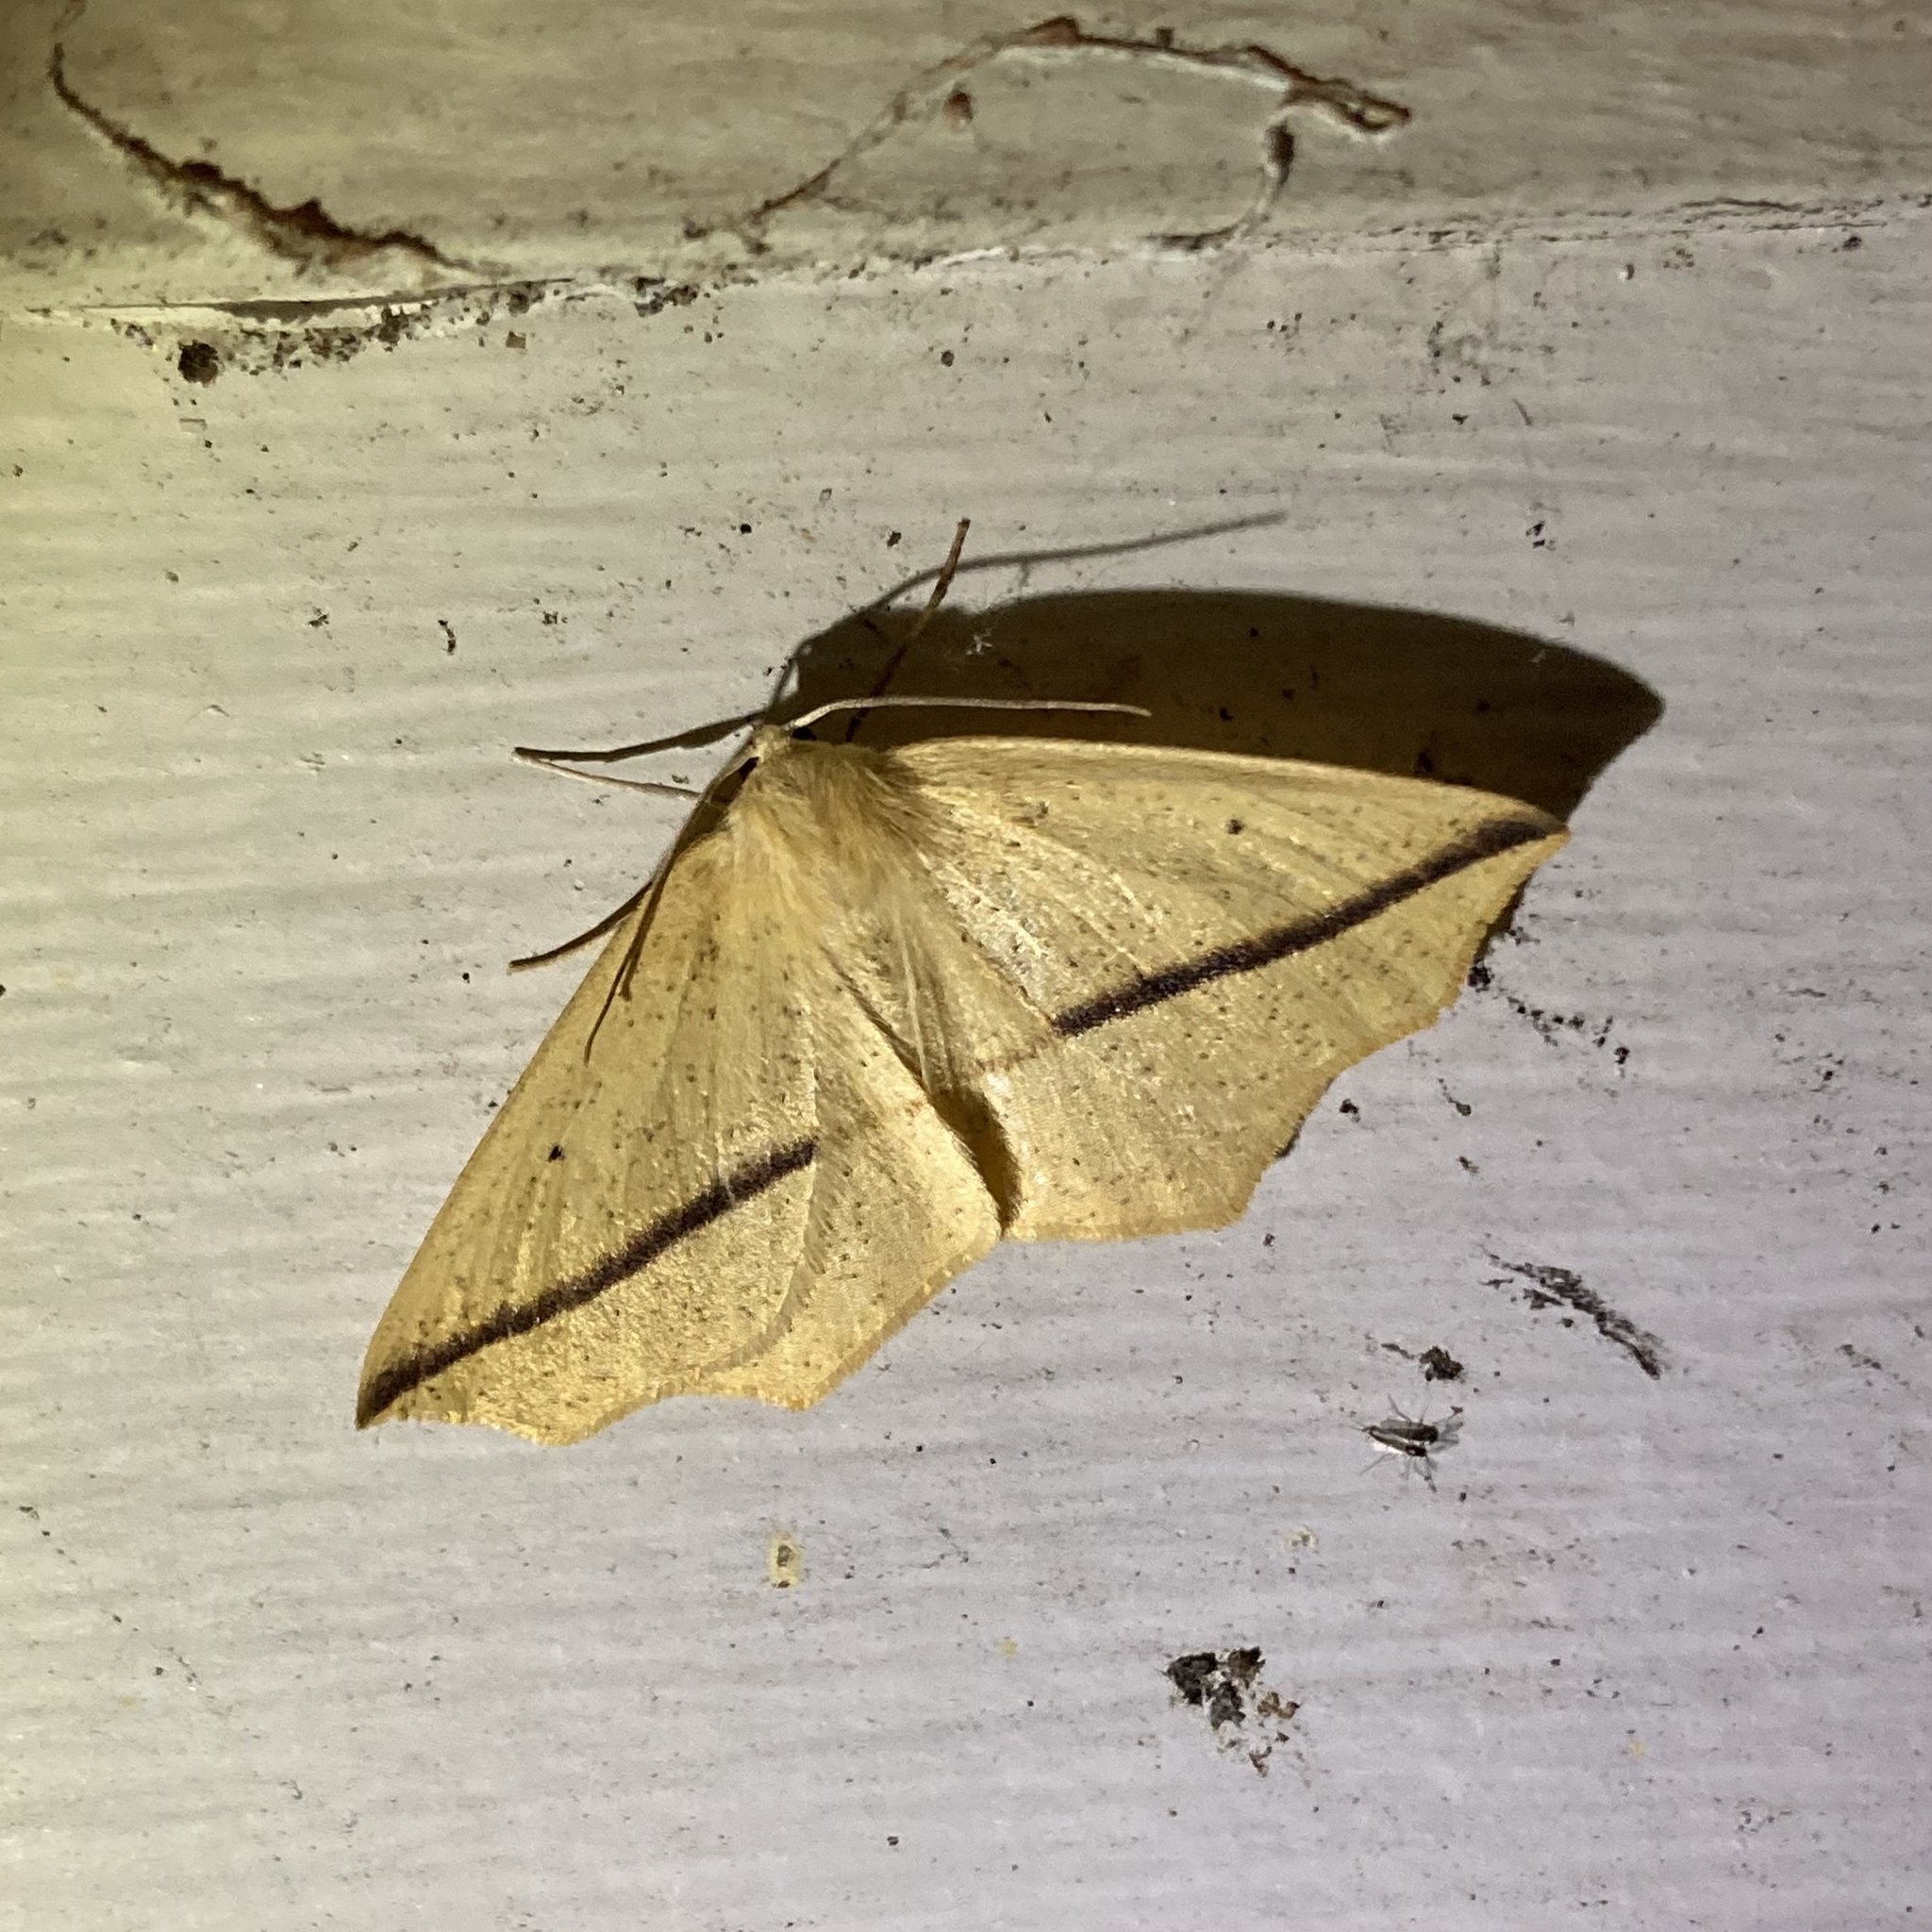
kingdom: Animalia
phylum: Arthropoda
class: Insecta
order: Lepidoptera
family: Geometridae
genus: Tetracis
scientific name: Tetracis crocallata
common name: Yellow slant-line
